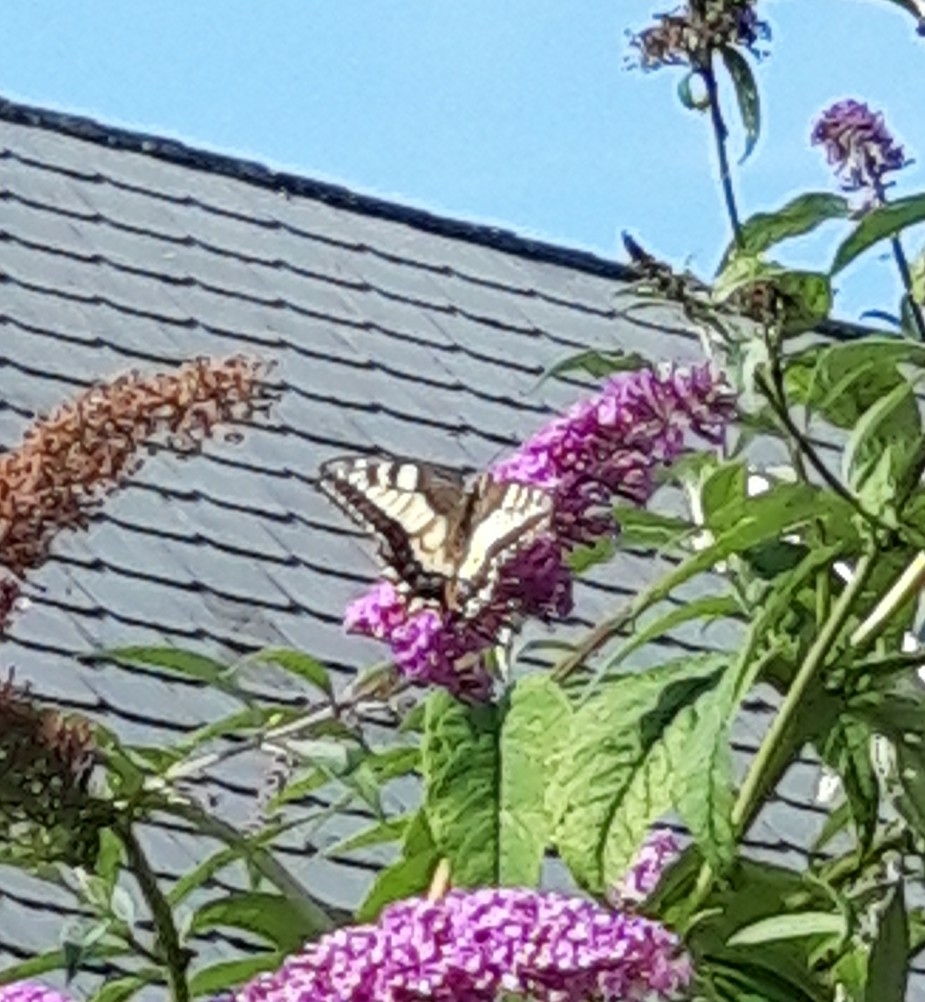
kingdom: Animalia
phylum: Arthropoda
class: Insecta
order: Lepidoptera
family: Papilionidae
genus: Papilio
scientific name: Papilio machaon
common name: Swallowtail
